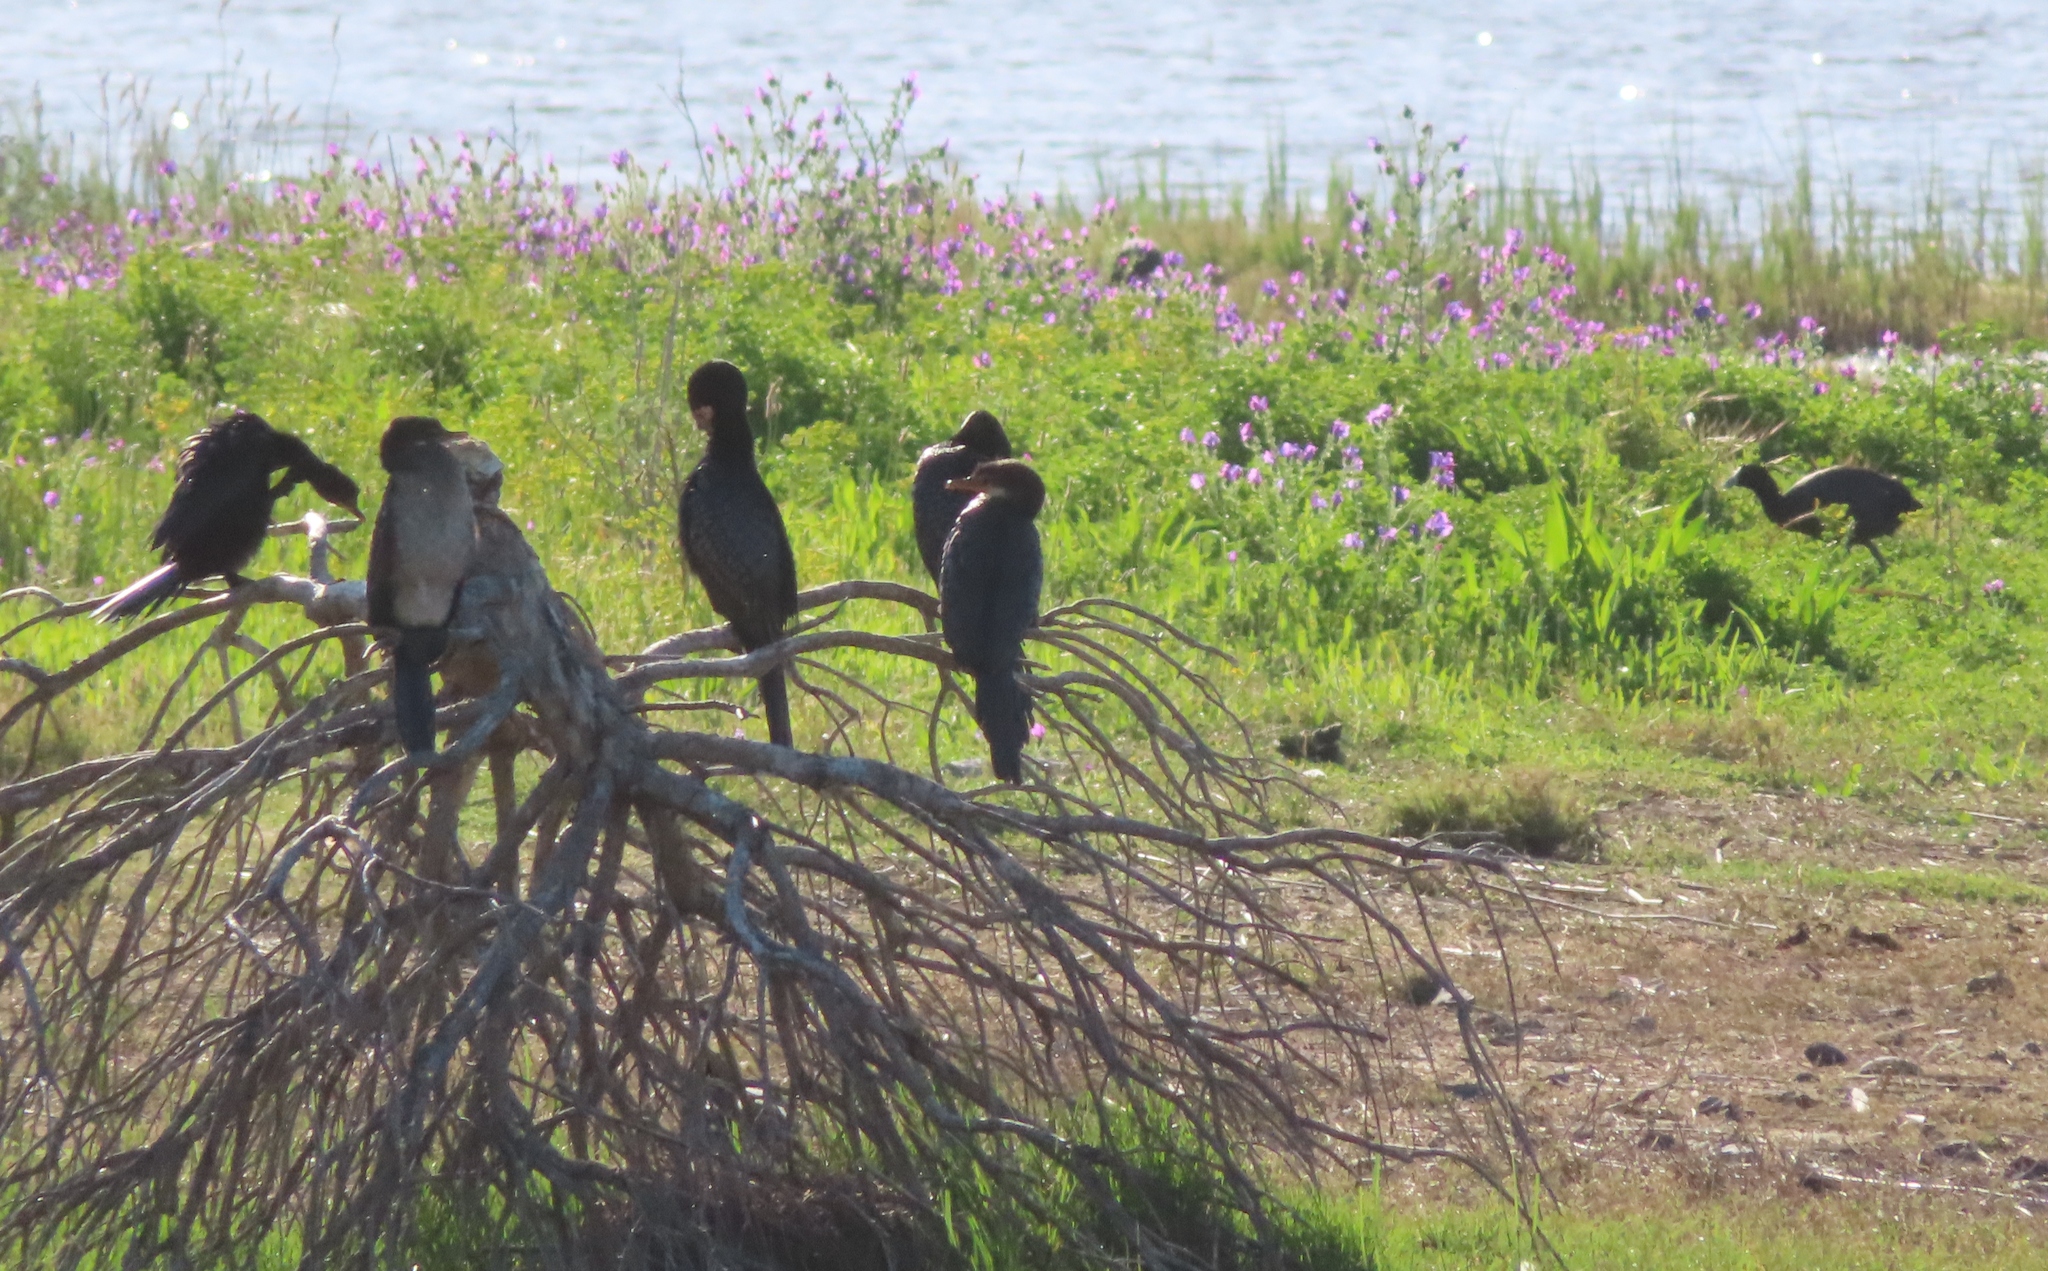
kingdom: Animalia
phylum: Chordata
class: Aves
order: Suliformes
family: Phalacrocoracidae
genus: Microcarbo
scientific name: Microcarbo africanus
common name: Long-tailed cormorant
